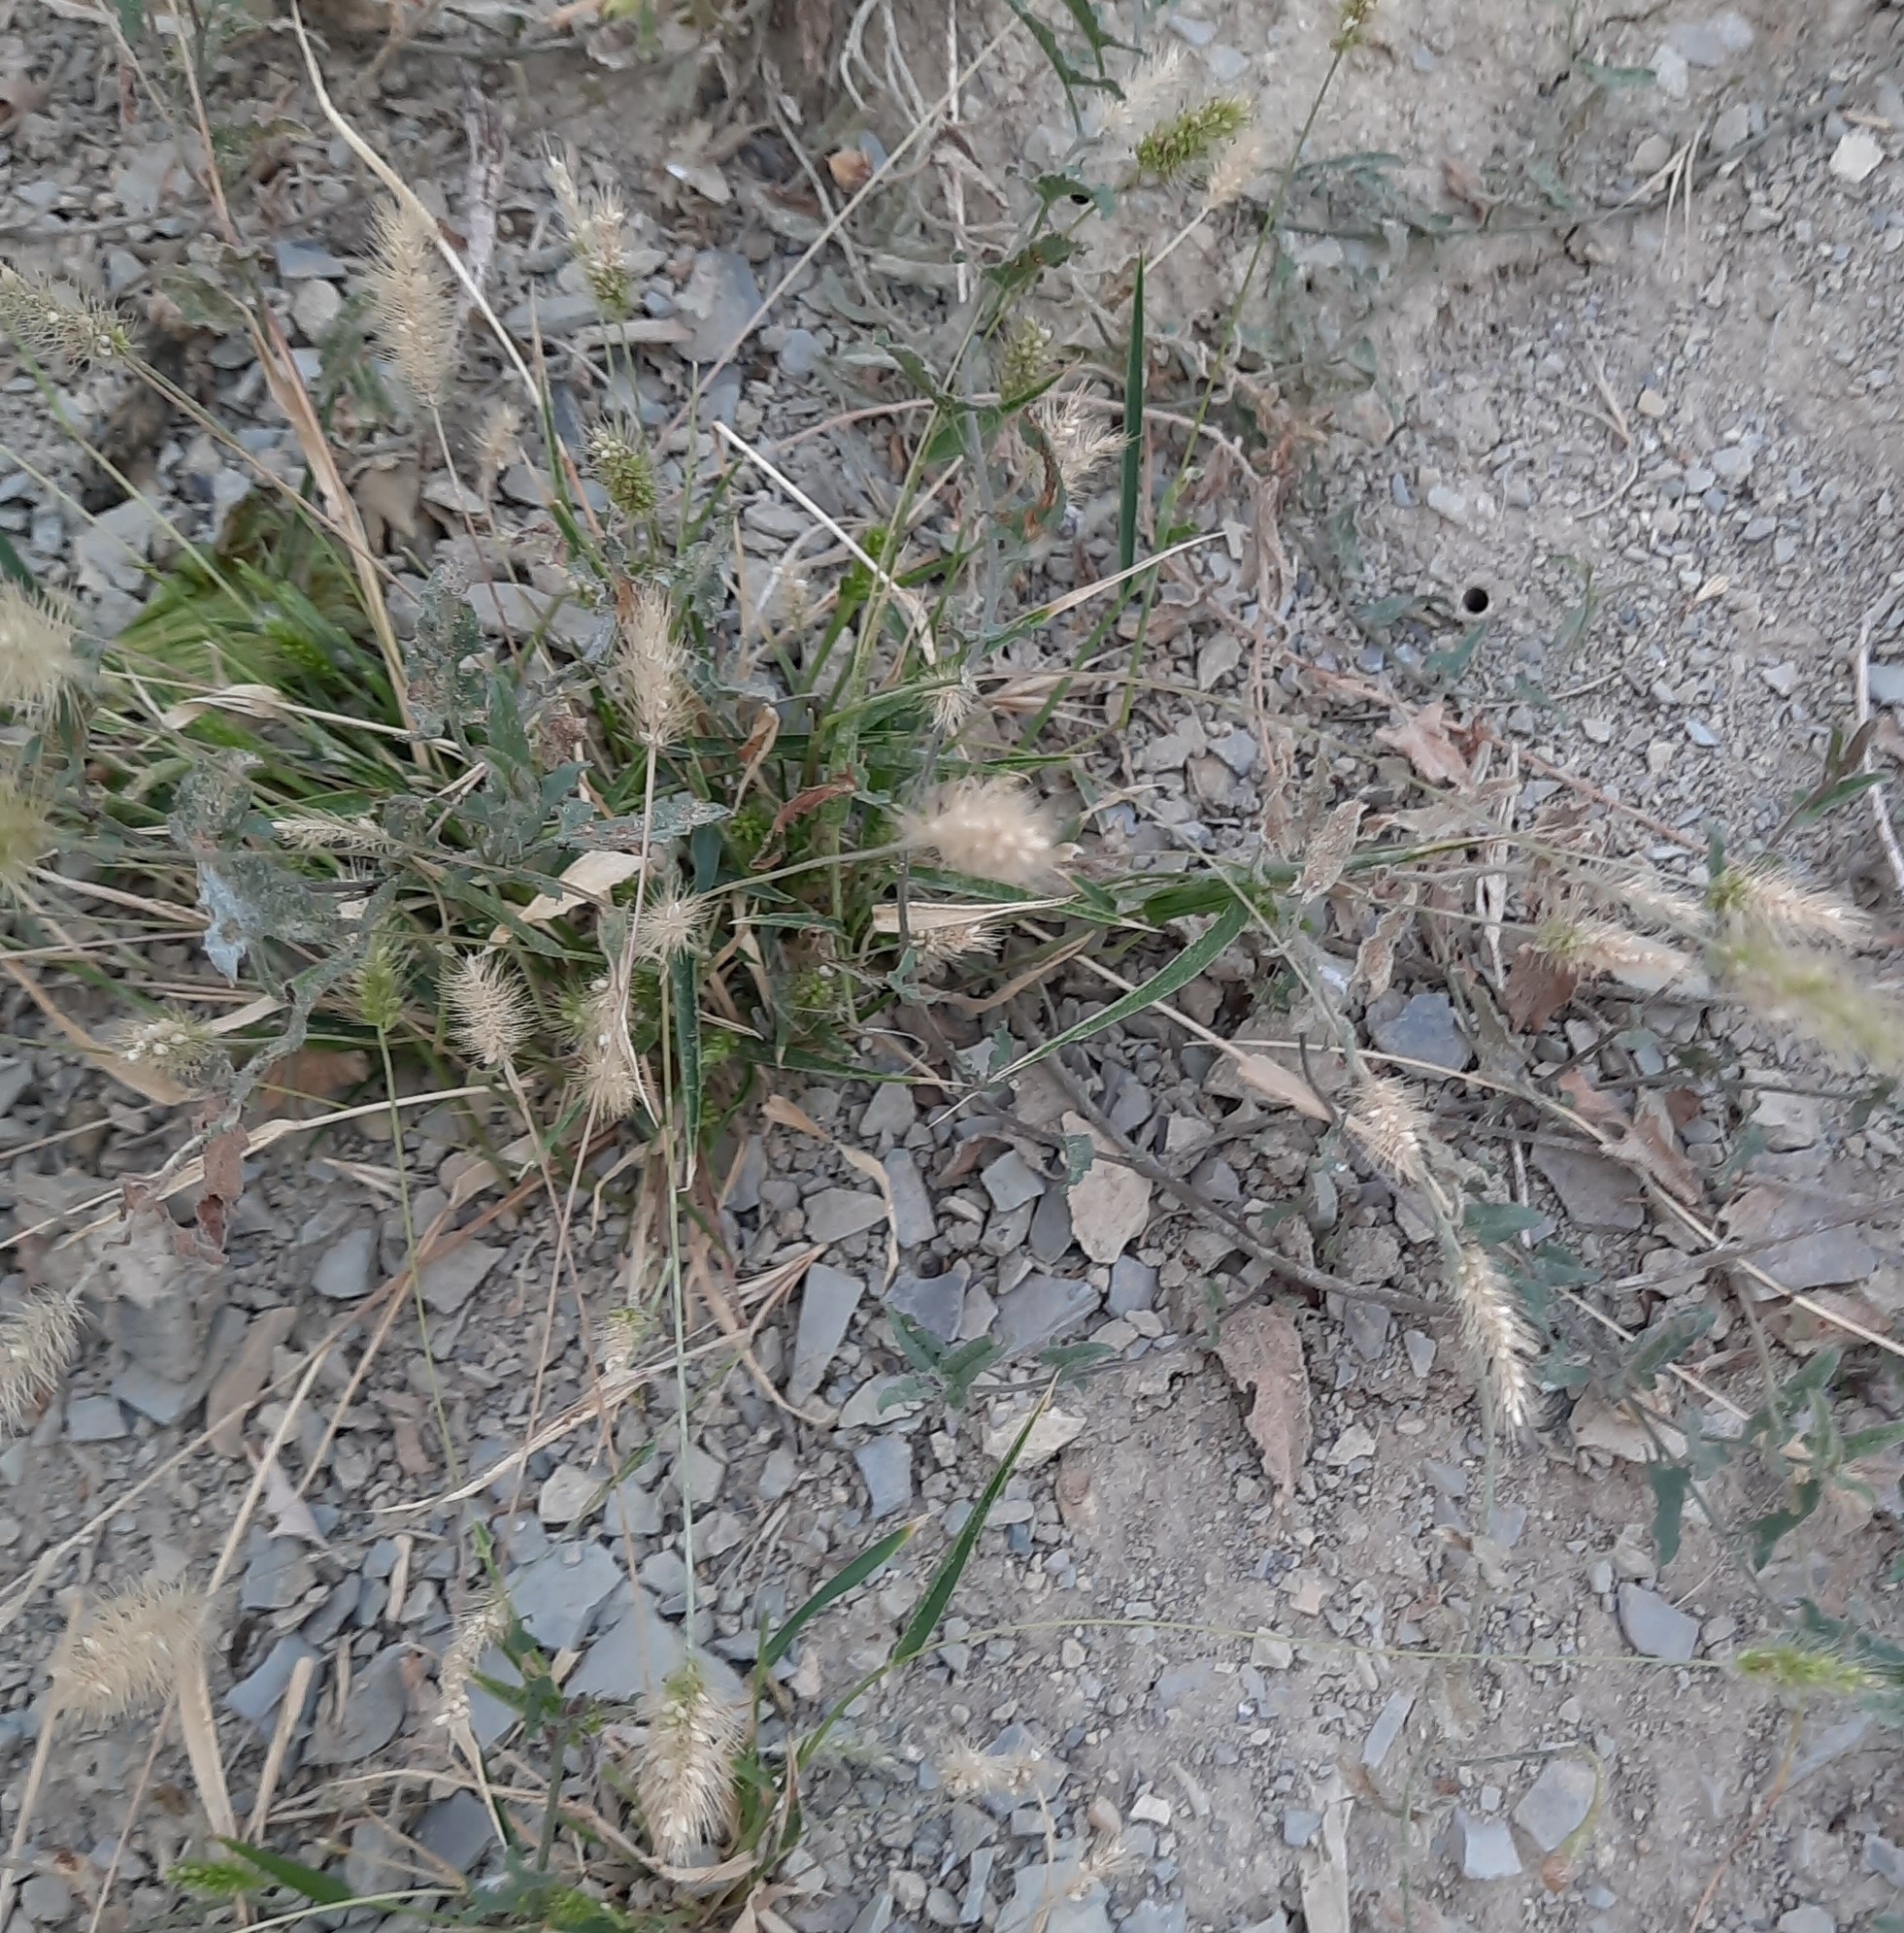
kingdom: Plantae
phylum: Tracheophyta
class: Liliopsida
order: Poales
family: Poaceae
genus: Setaria
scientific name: Setaria viridis
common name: Green bristlegrass
